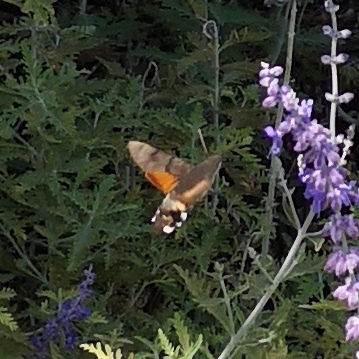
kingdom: Animalia
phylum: Arthropoda
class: Insecta
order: Lepidoptera
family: Sphingidae
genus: Macroglossum
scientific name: Macroglossum stellatarum
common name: Humming-bird hawk-moth
